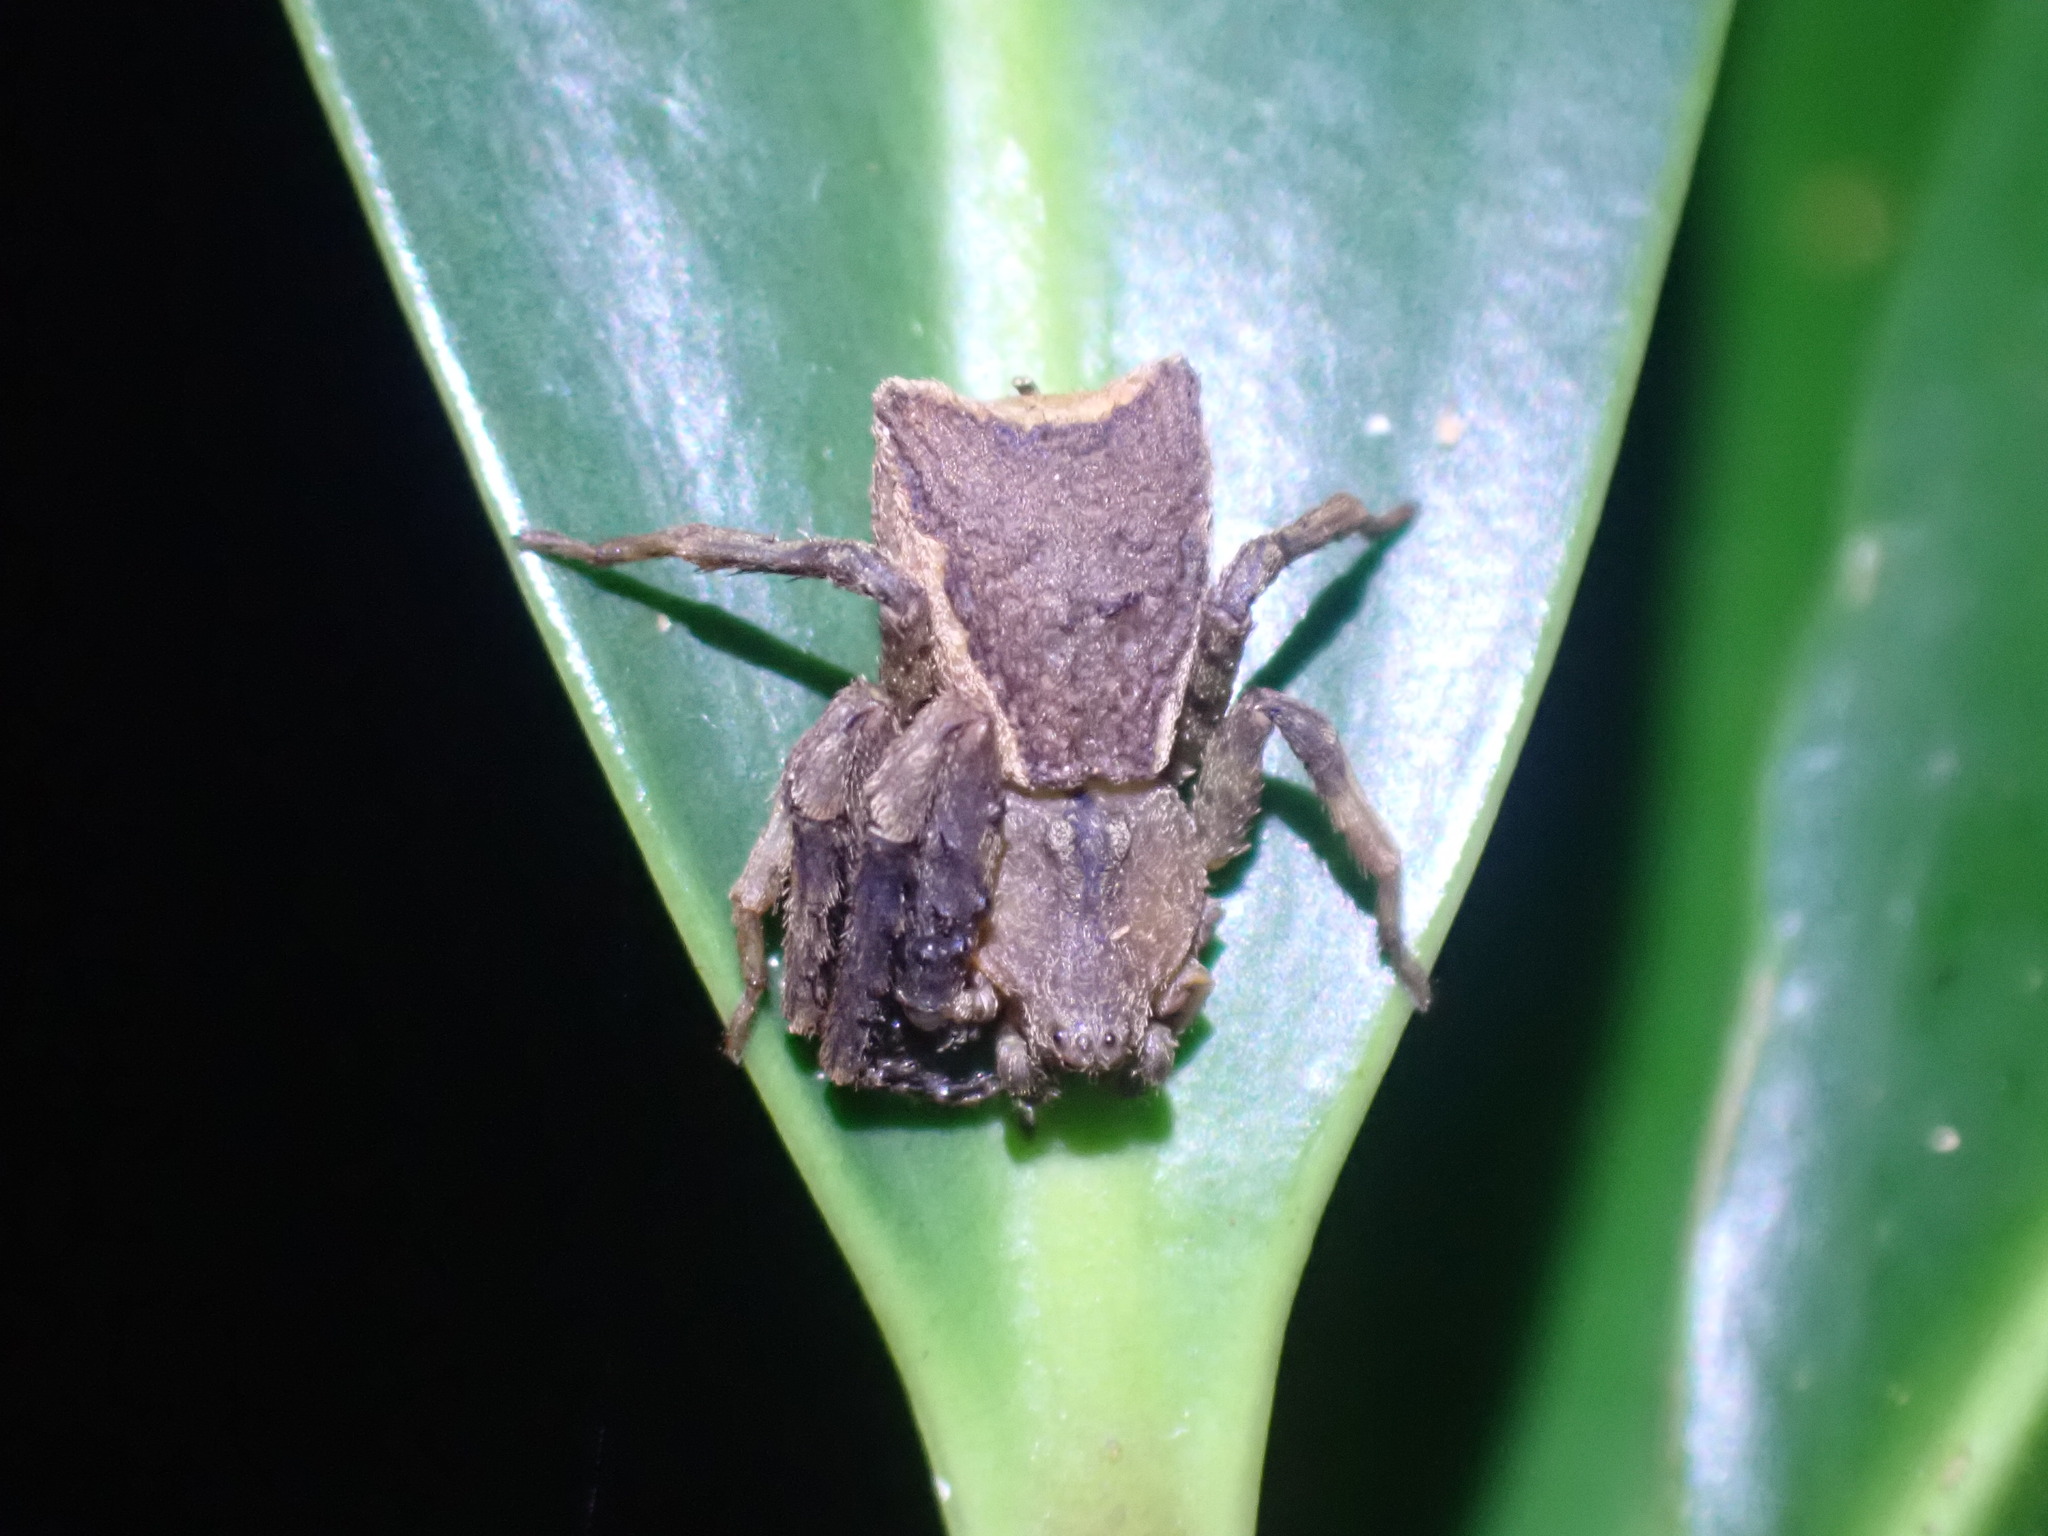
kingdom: Animalia
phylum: Arthropoda
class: Arachnida
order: Araneae
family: Thomisidae
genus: Sidymella
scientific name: Sidymella angularis
